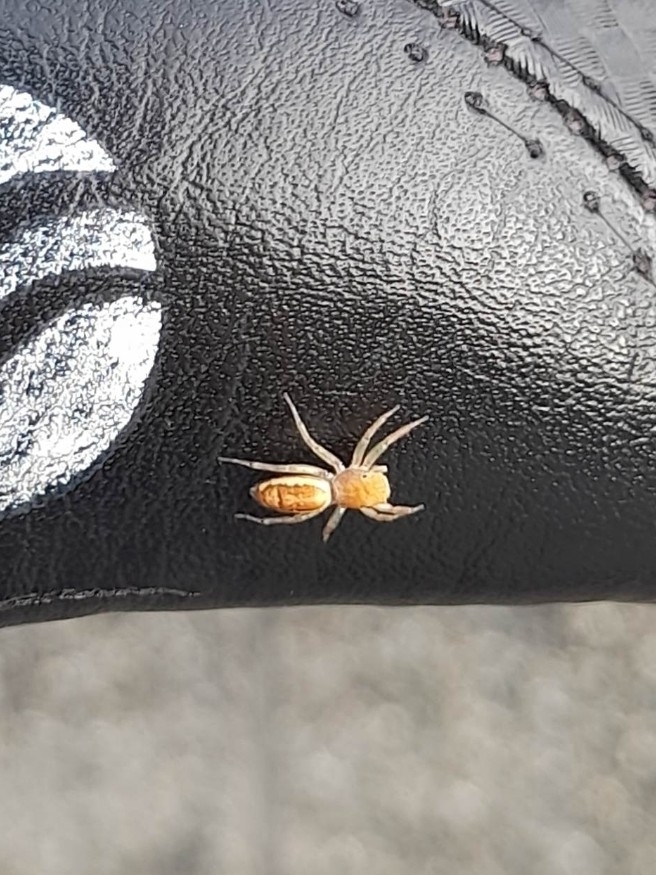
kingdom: Animalia
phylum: Arthropoda
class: Arachnida
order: Araneae
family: Salticidae
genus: Cosmophasis
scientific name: Cosmophasis lami
